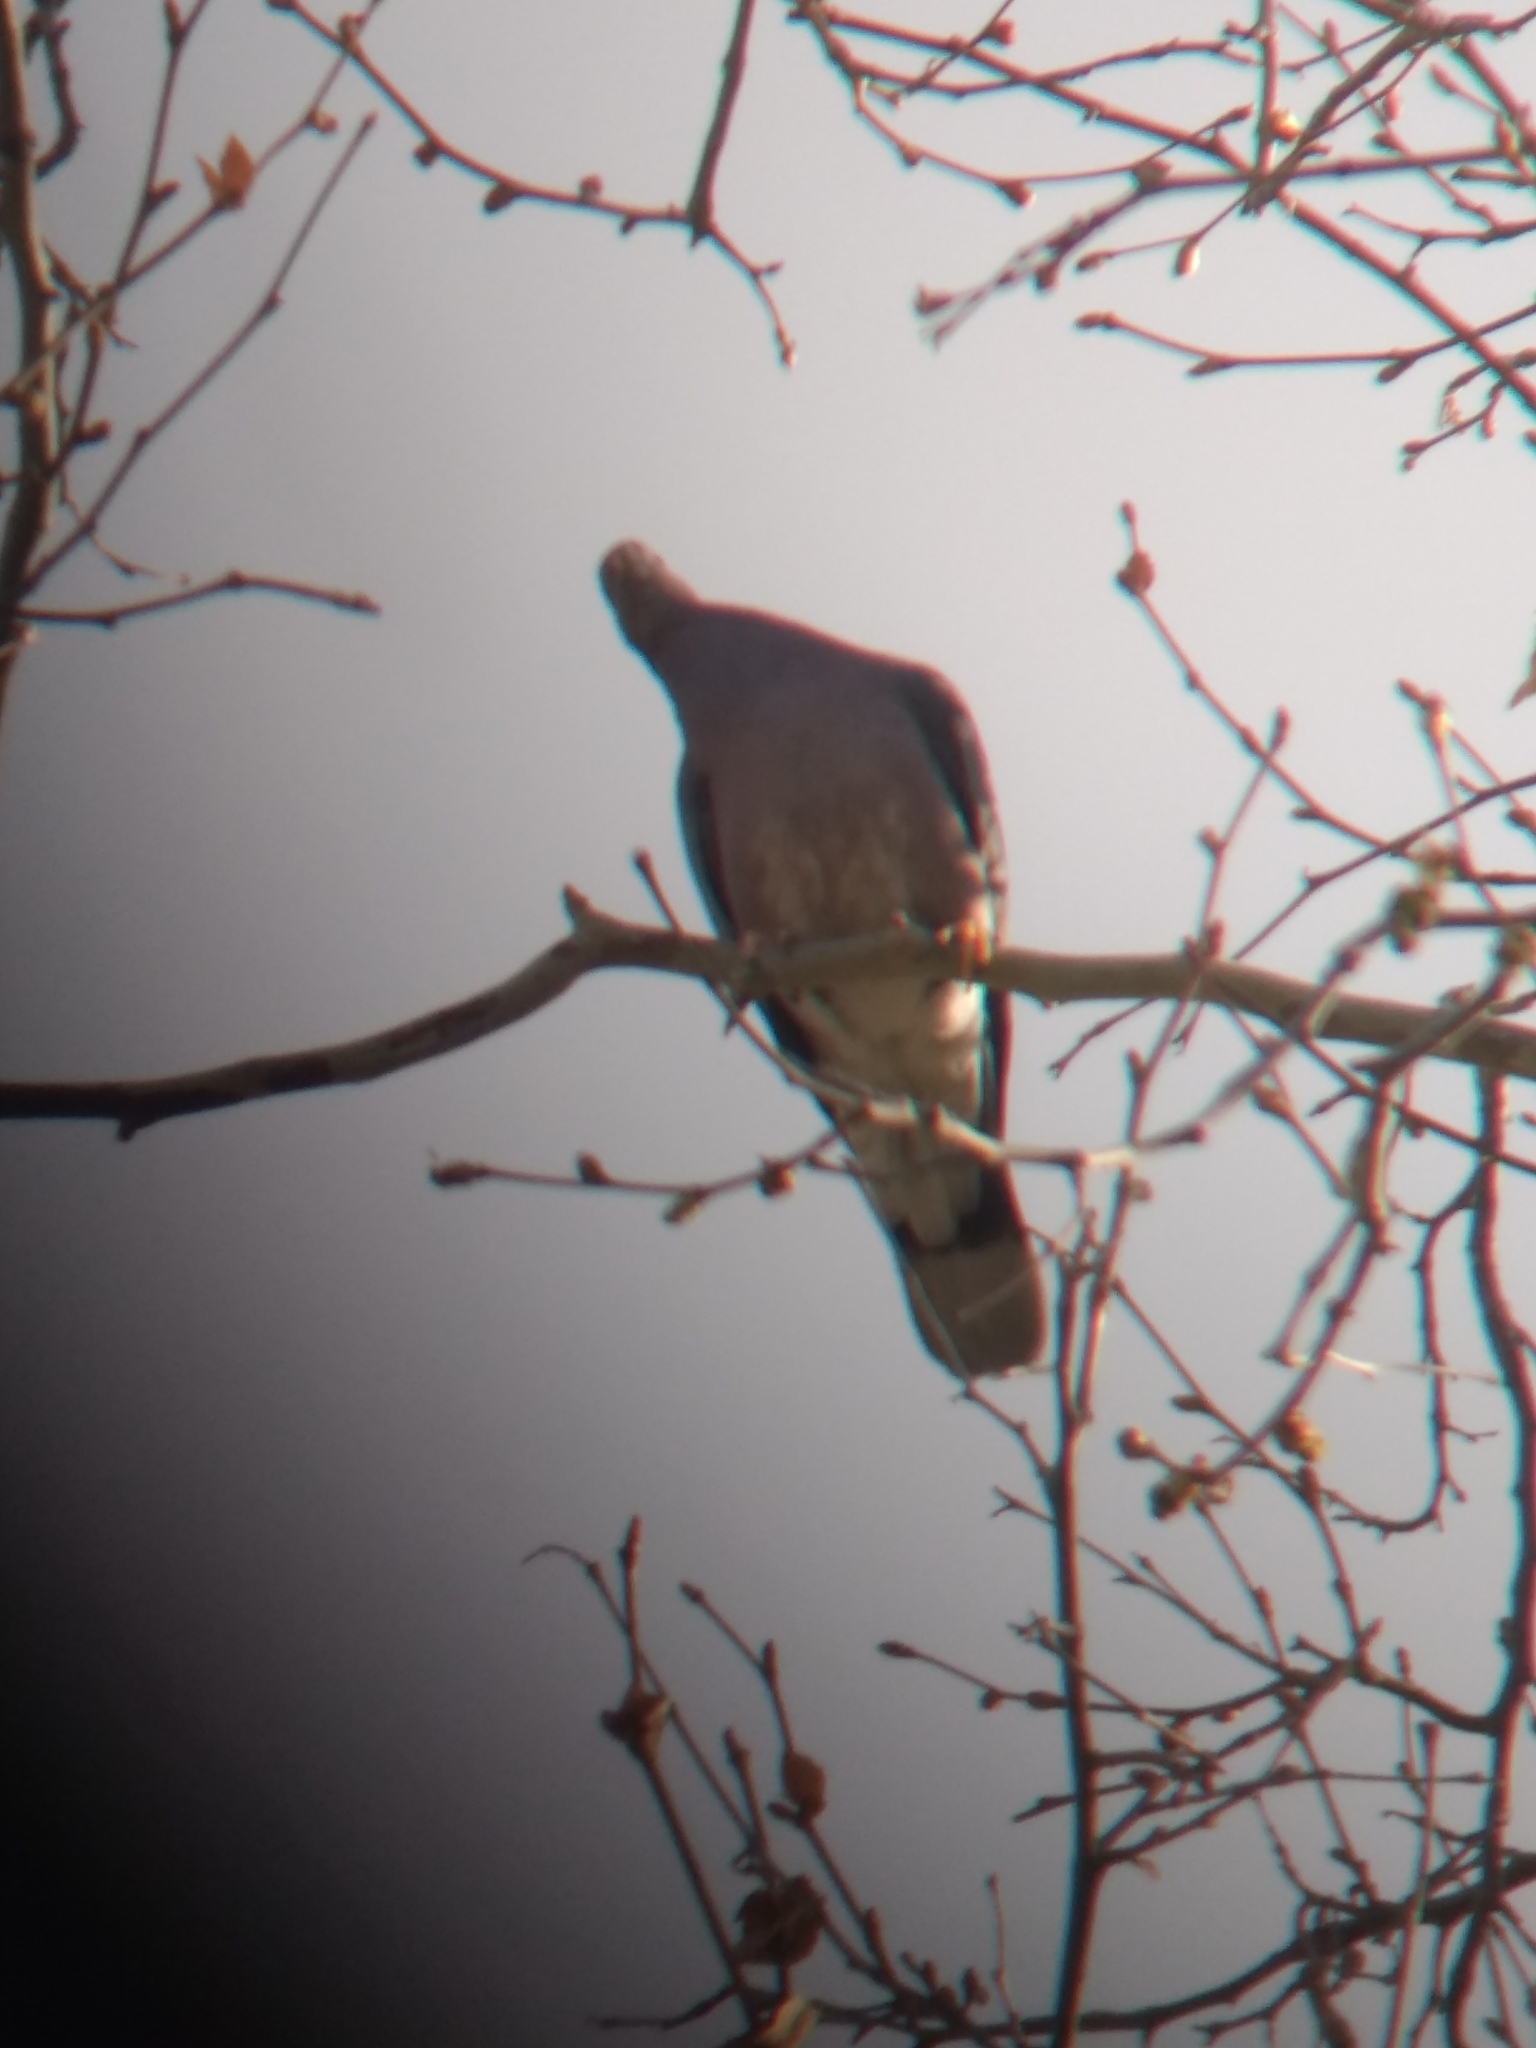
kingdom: Animalia
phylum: Chordata
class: Aves
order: Columbiformes
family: Columbidae
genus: Patagioenas
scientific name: Patagioenas fasciata
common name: Band-tailed pigeon
